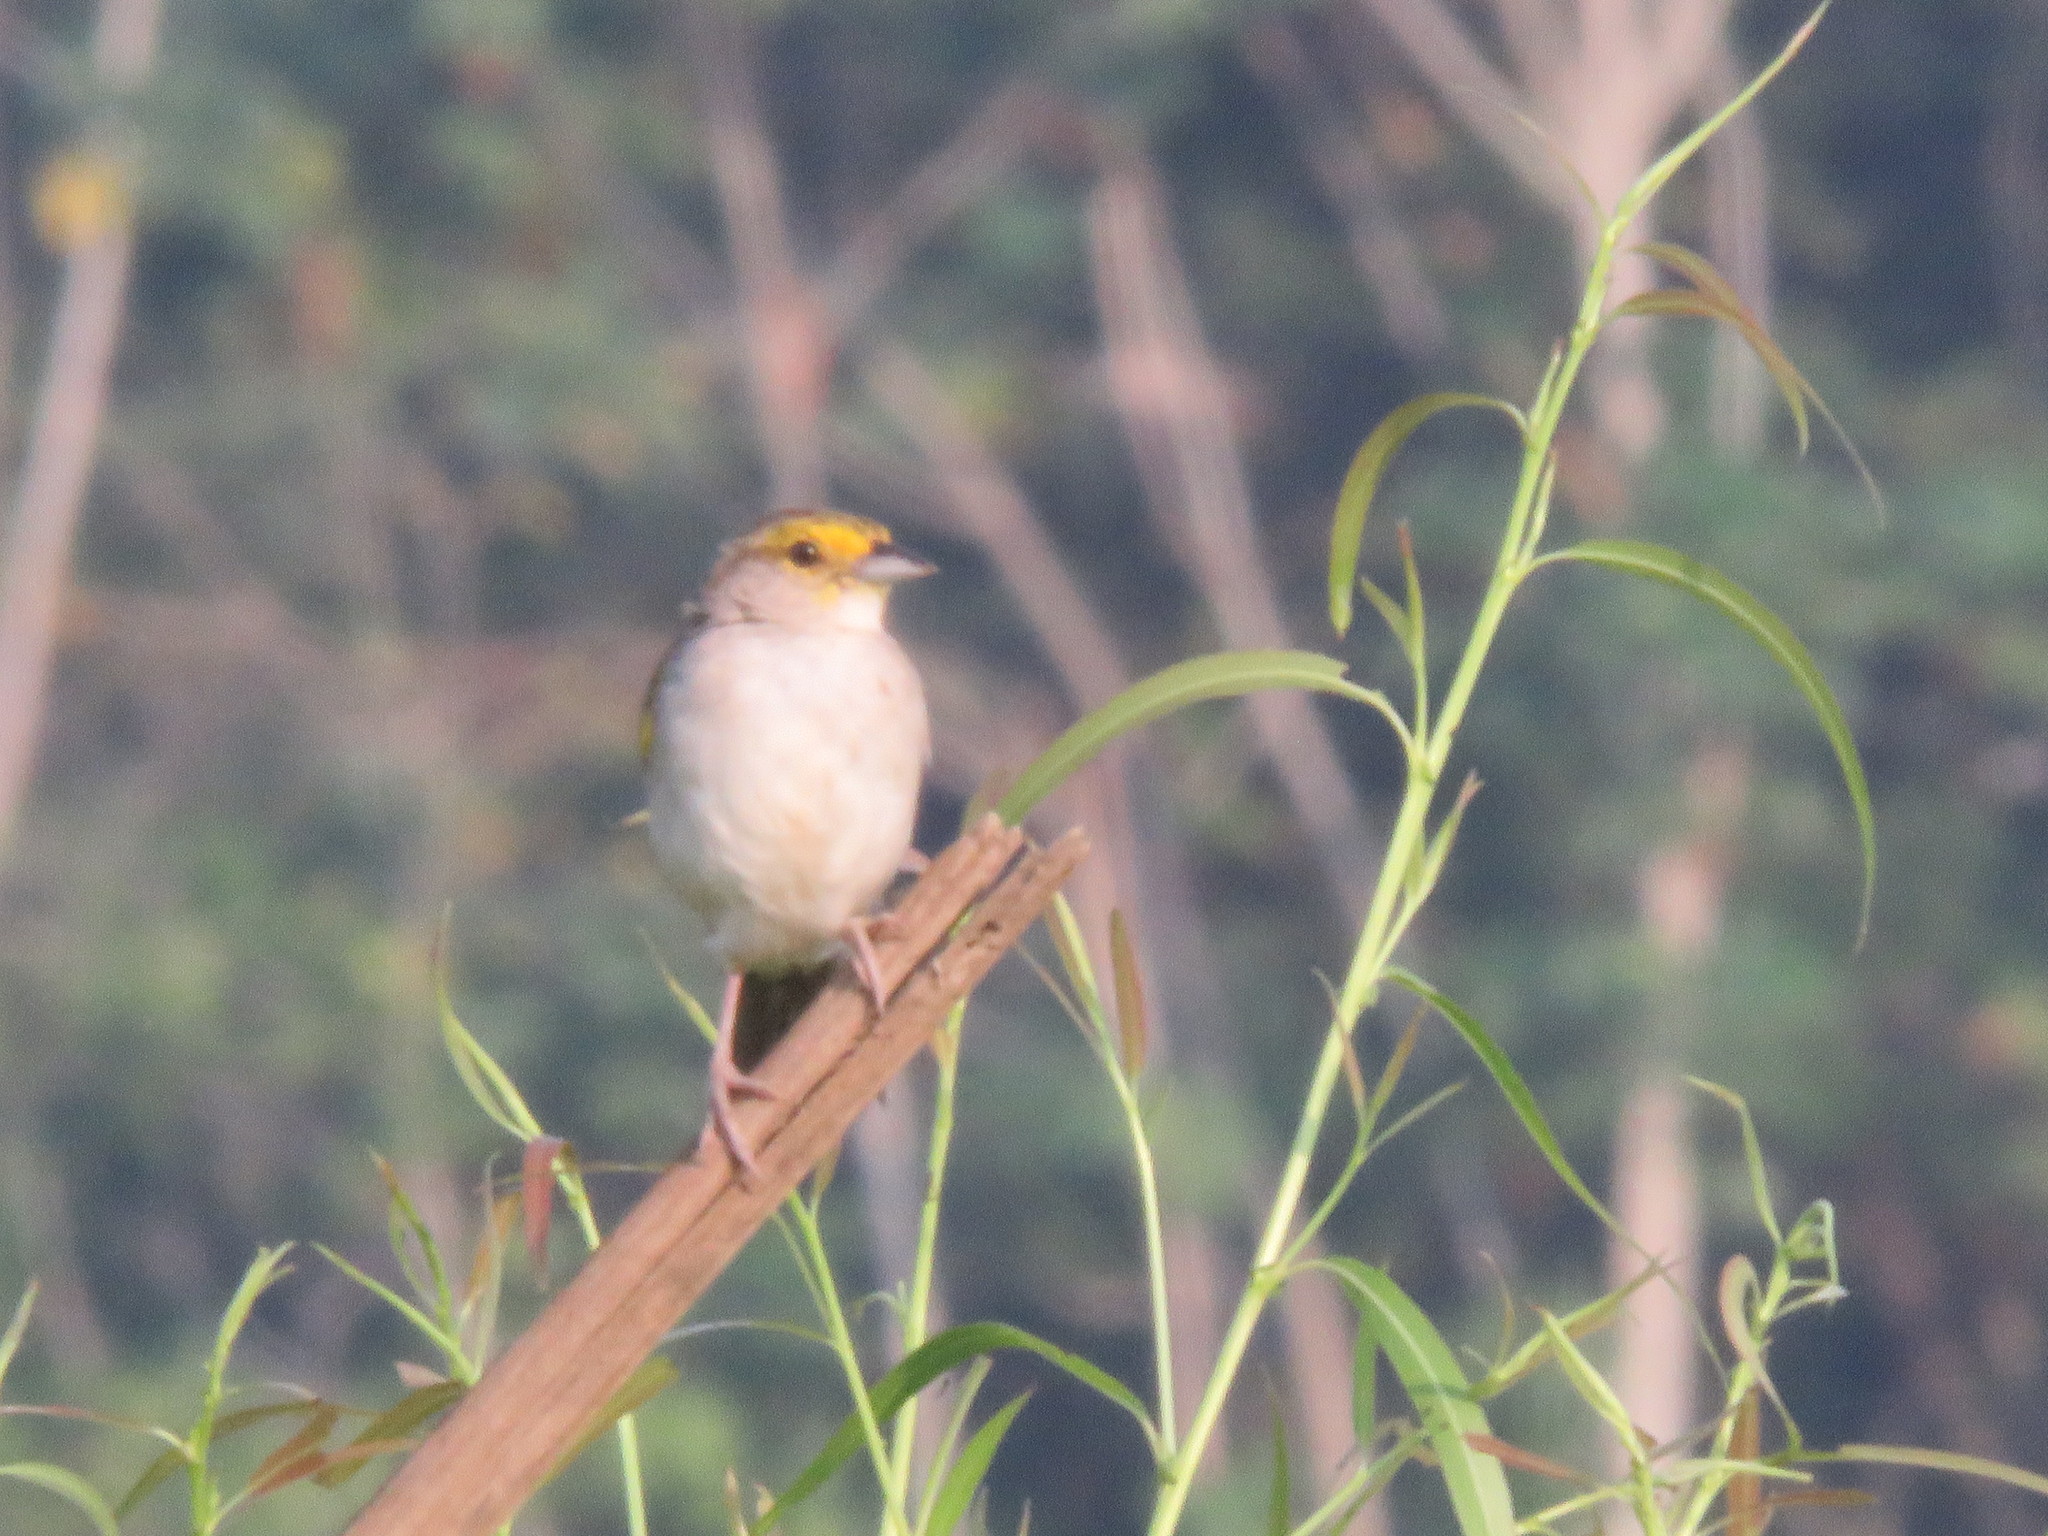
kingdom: Animalia
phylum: Chordata
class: Aves
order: Passeriformes
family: Passerellidae
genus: Ammodramus
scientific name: Ammodramus aurifrons
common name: Yellow-browed sparrow
